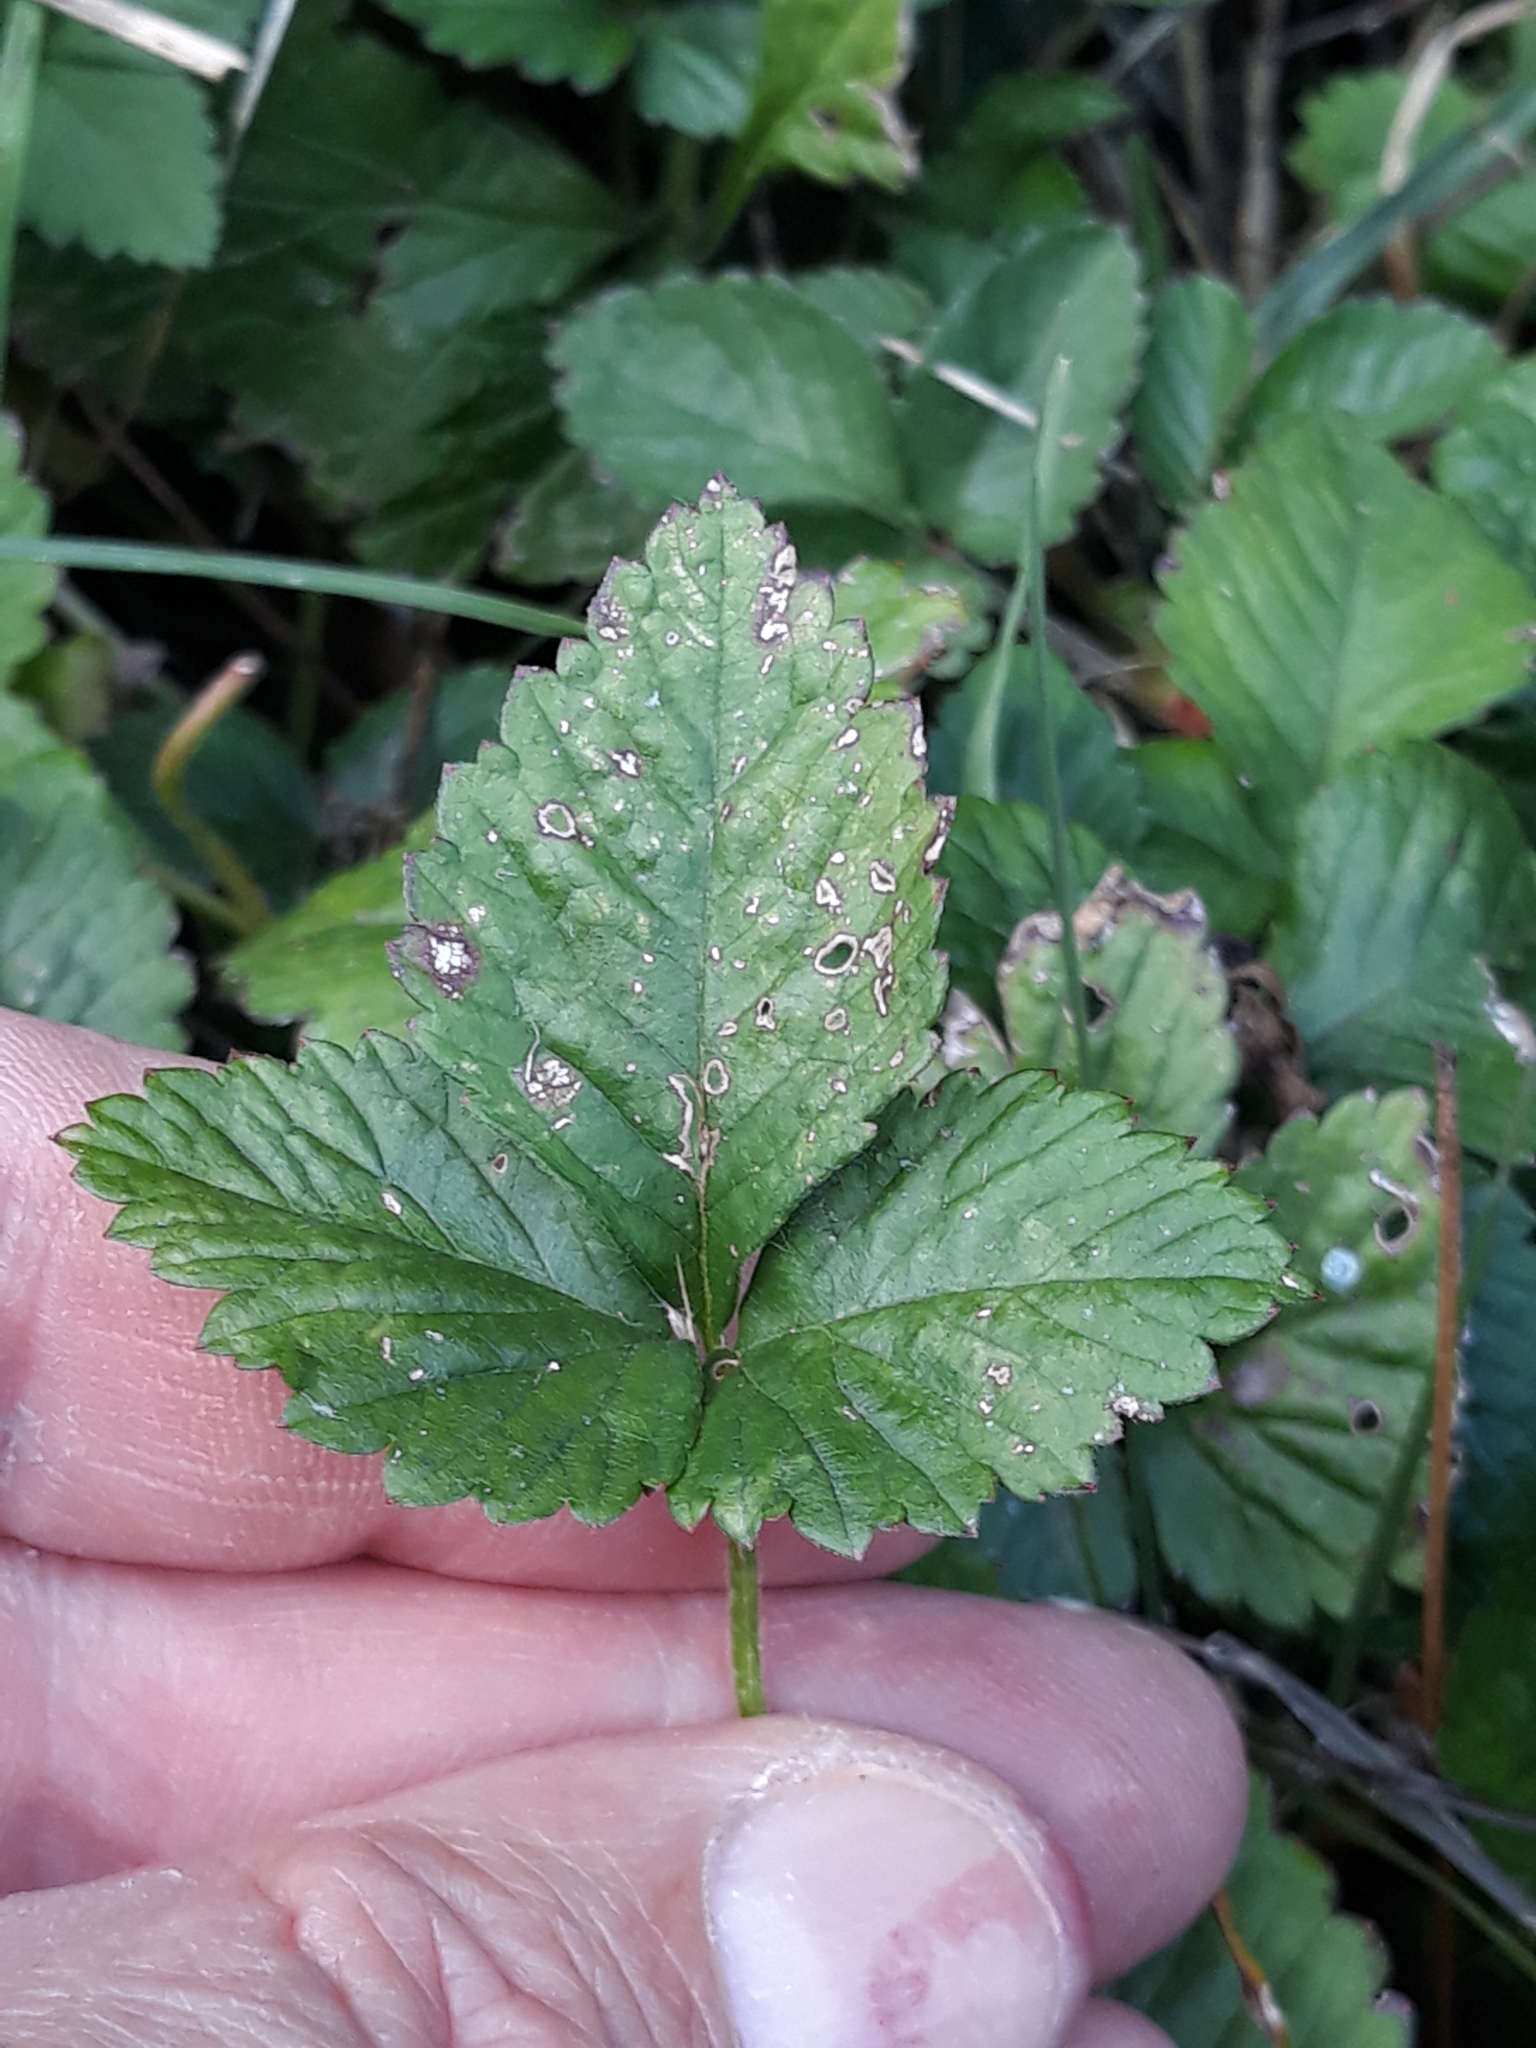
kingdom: Plantae
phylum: Tracheophyta
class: Magnoliopsida
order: Rosales
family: Rosaceae
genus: Potentilla
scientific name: Potentilla indica
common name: Yellow-flowered strawberry
